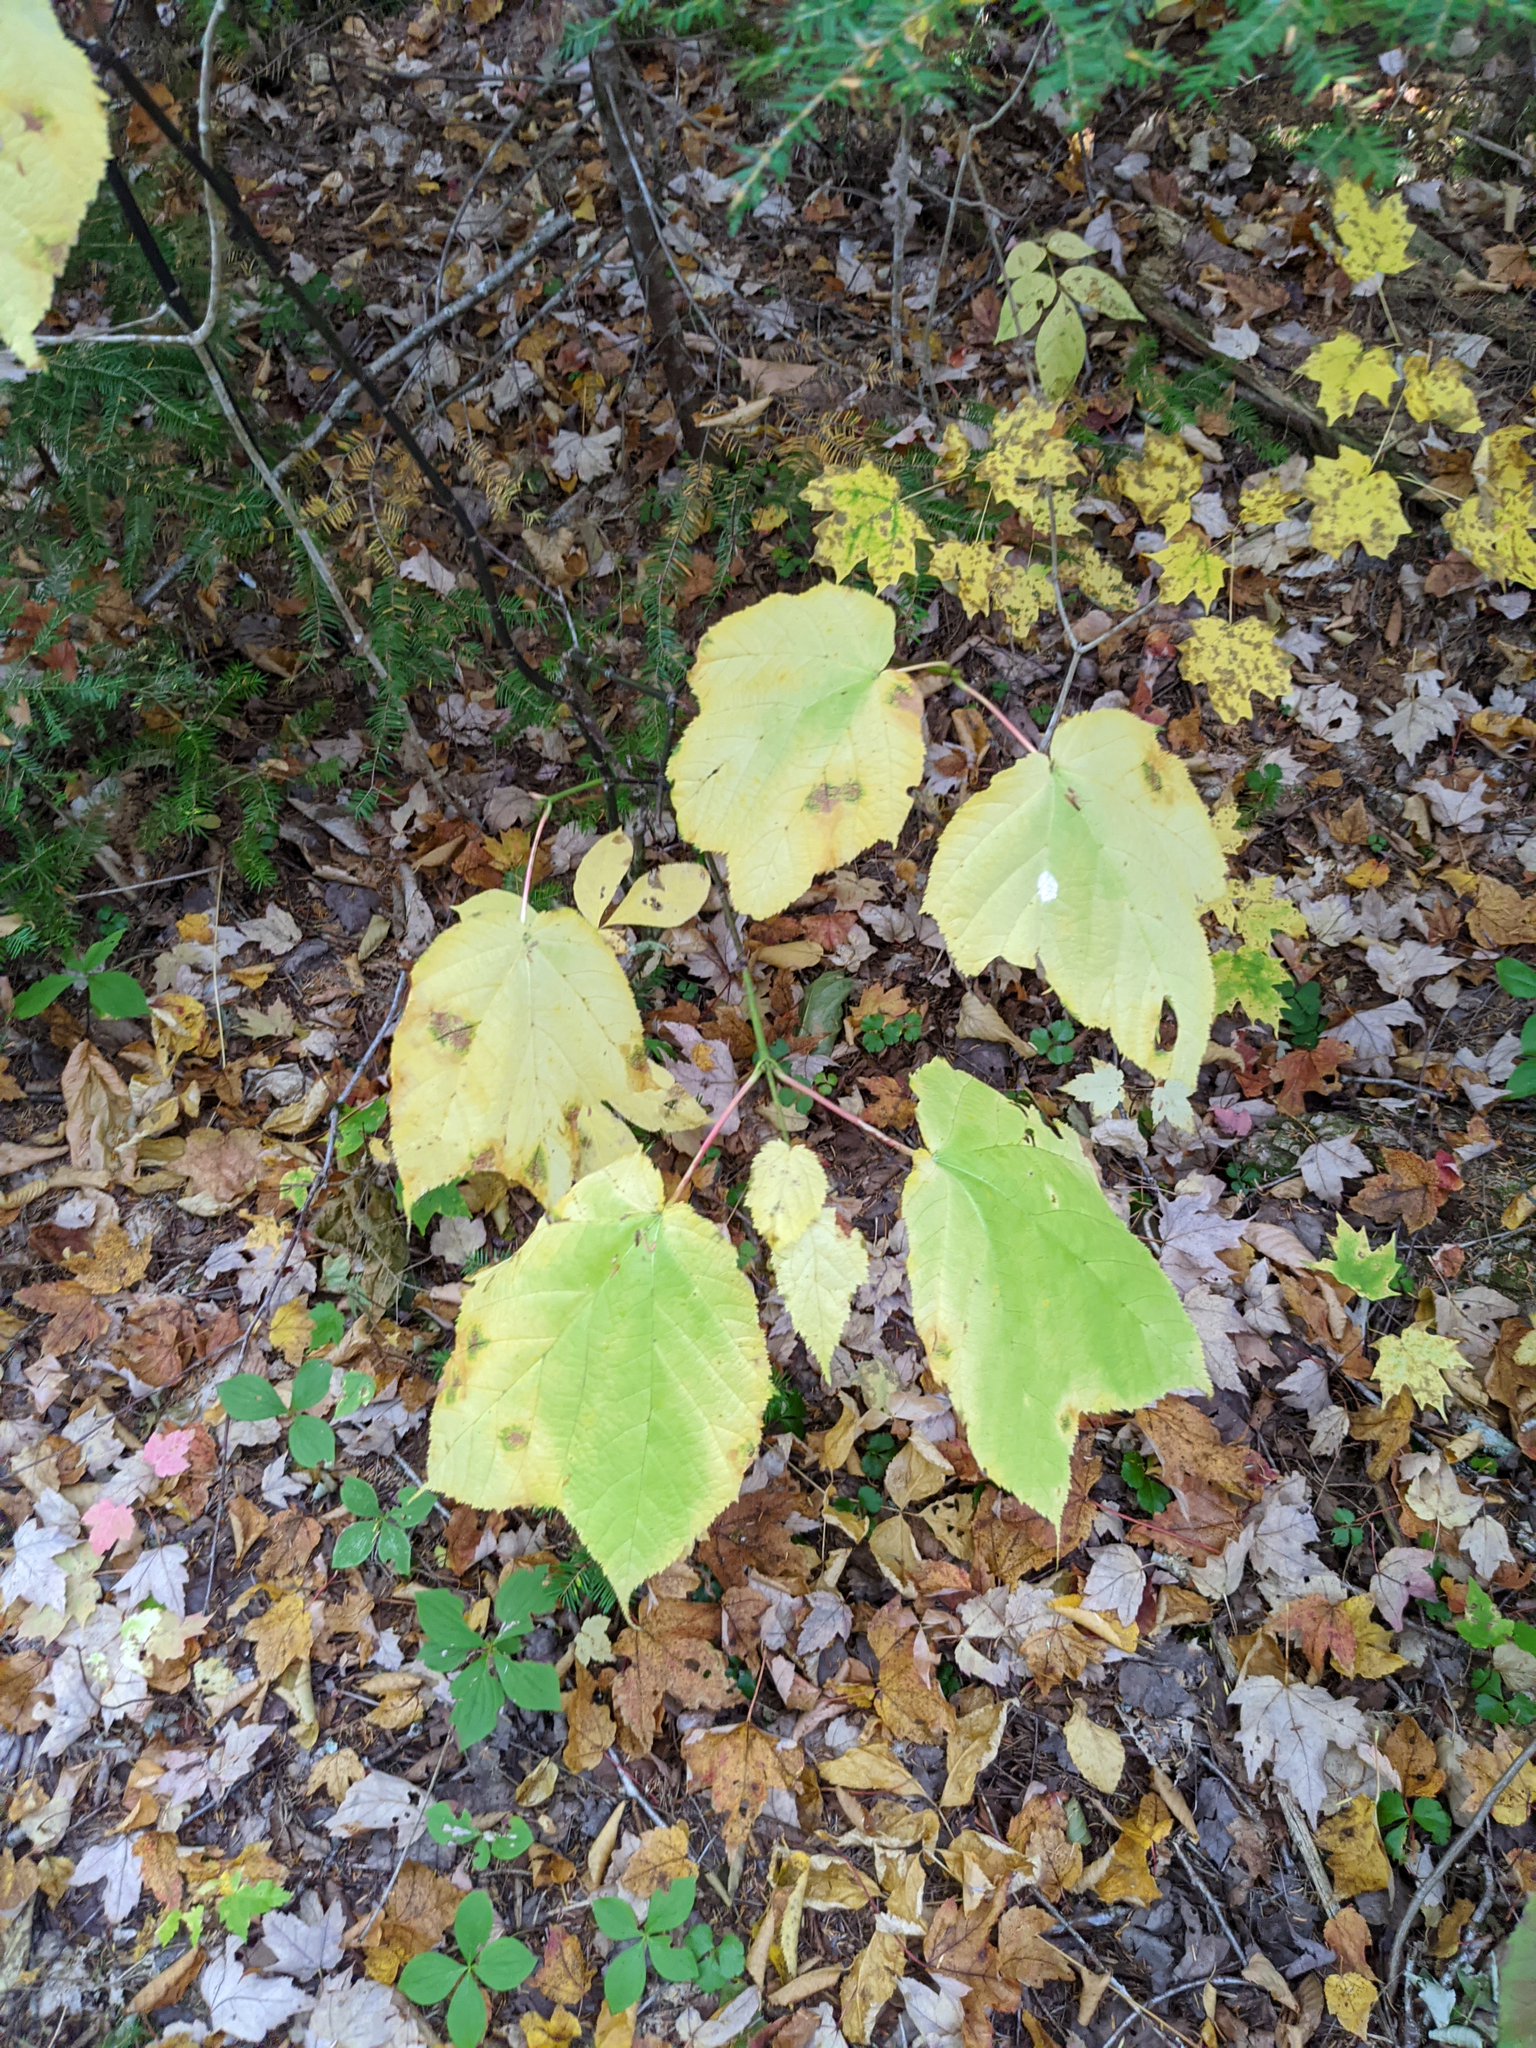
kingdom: Plantae
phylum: Tracheophyta
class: Magnoliopsida
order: Sapindales
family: Sapindaceae
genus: Acer
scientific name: Acer pensylvanicum
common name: Moosewood
